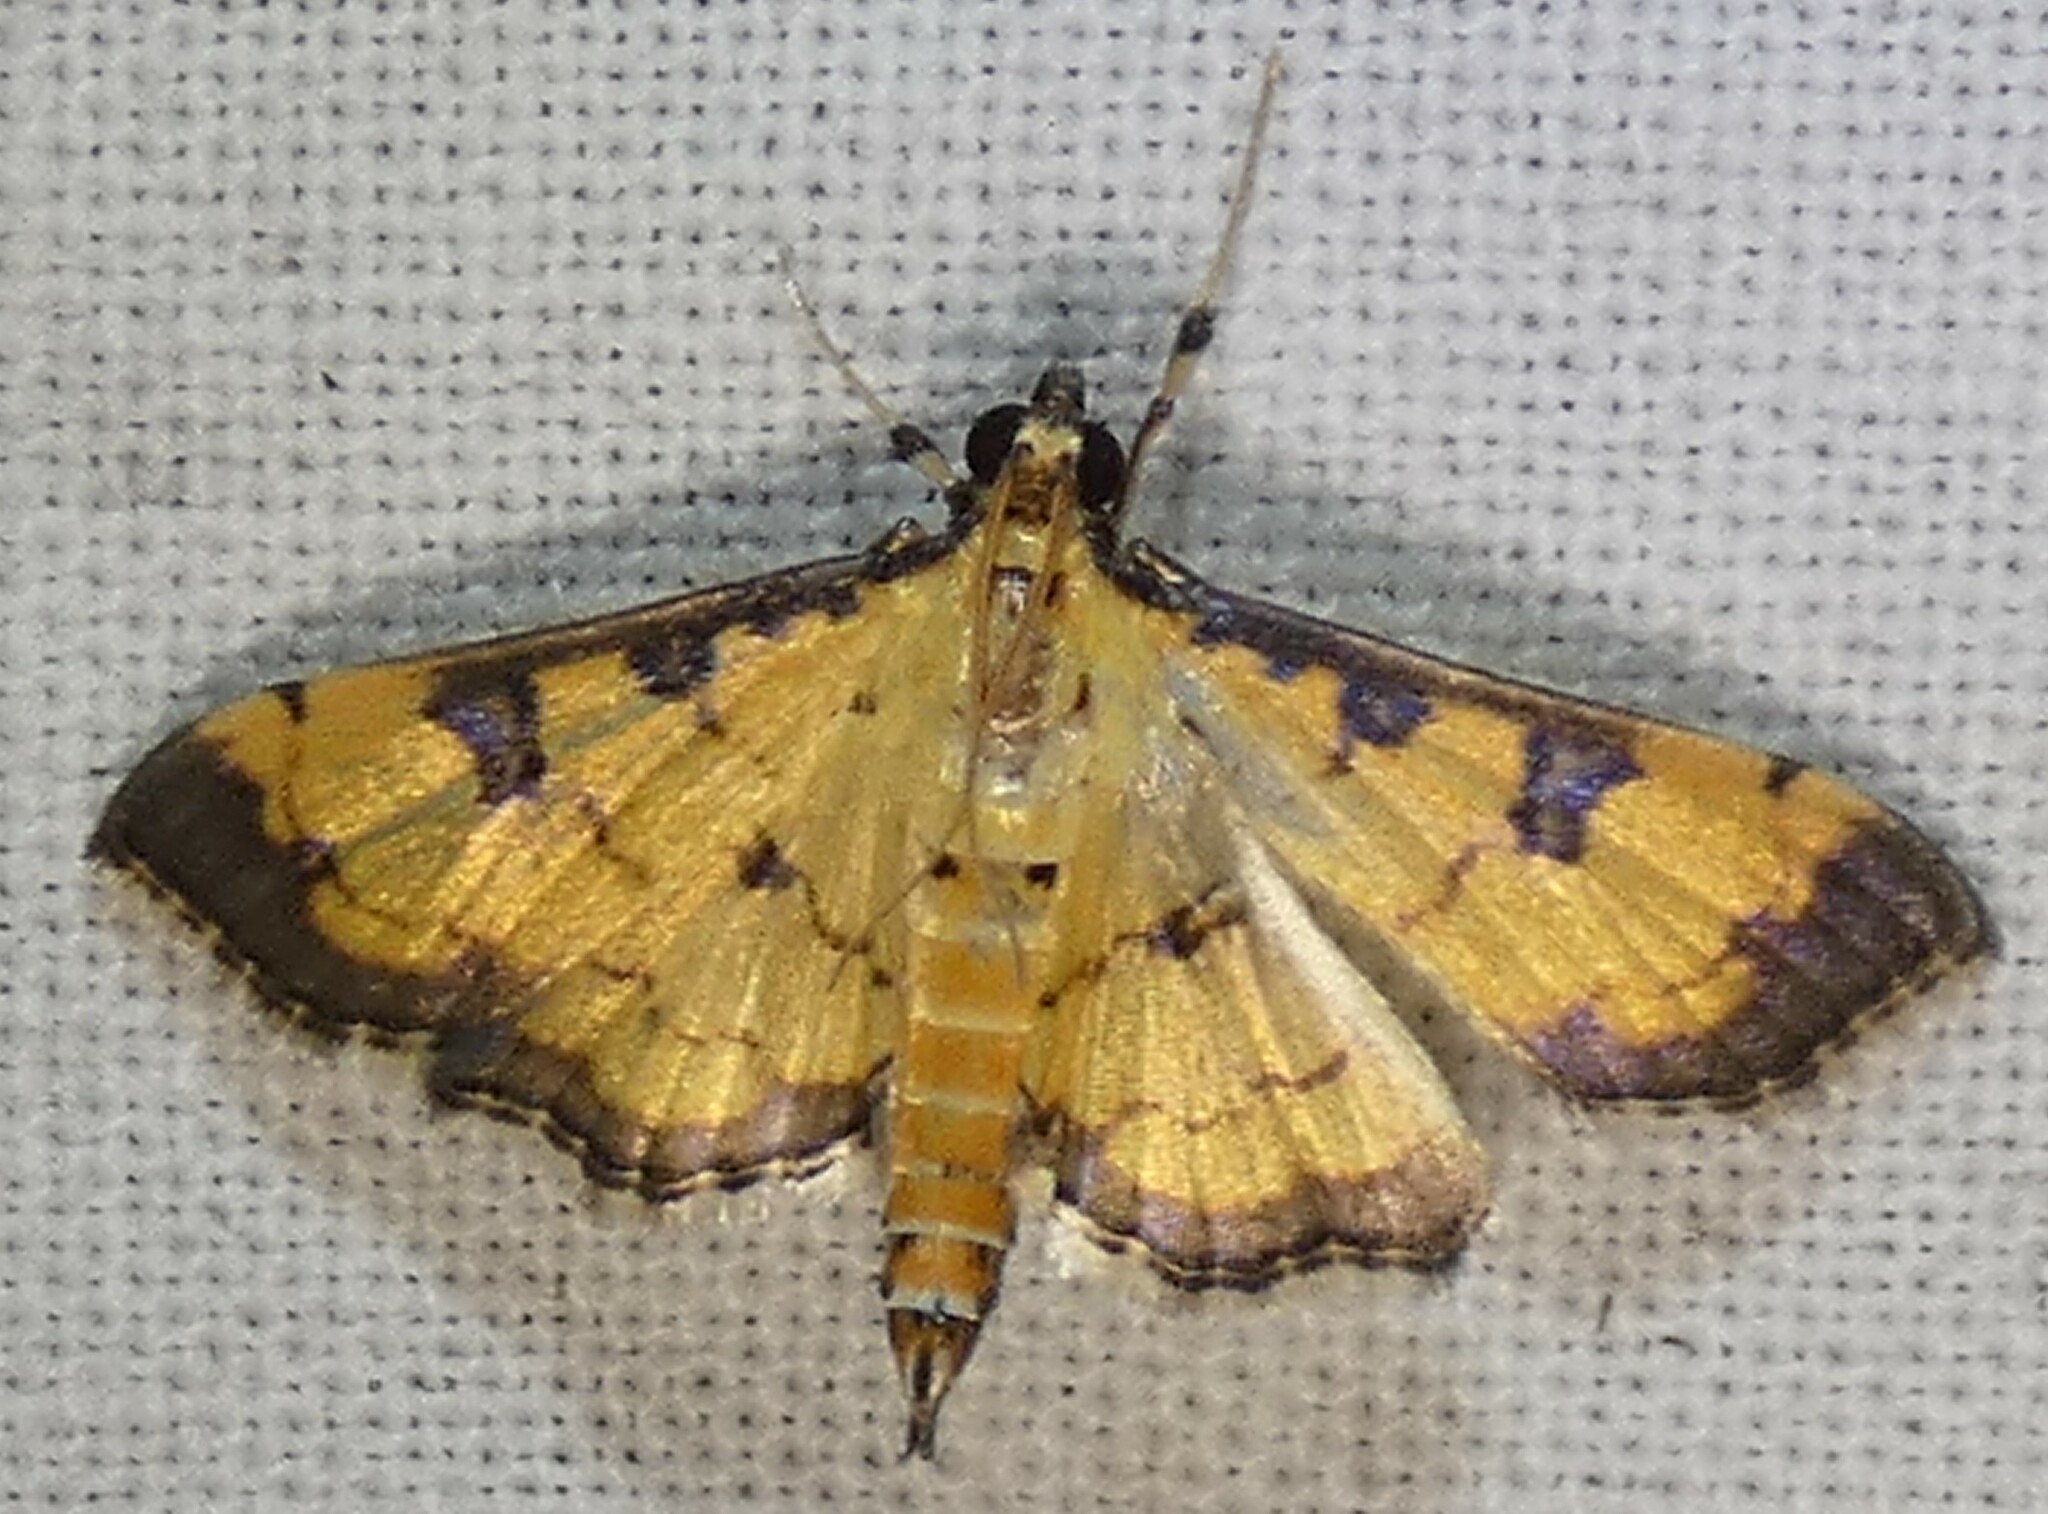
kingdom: Animalia
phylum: Arthropoda
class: Insecta
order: Lepidoptera
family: Crambidae
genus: Ategumia
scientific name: Ategumia ebulealis
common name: Moth
